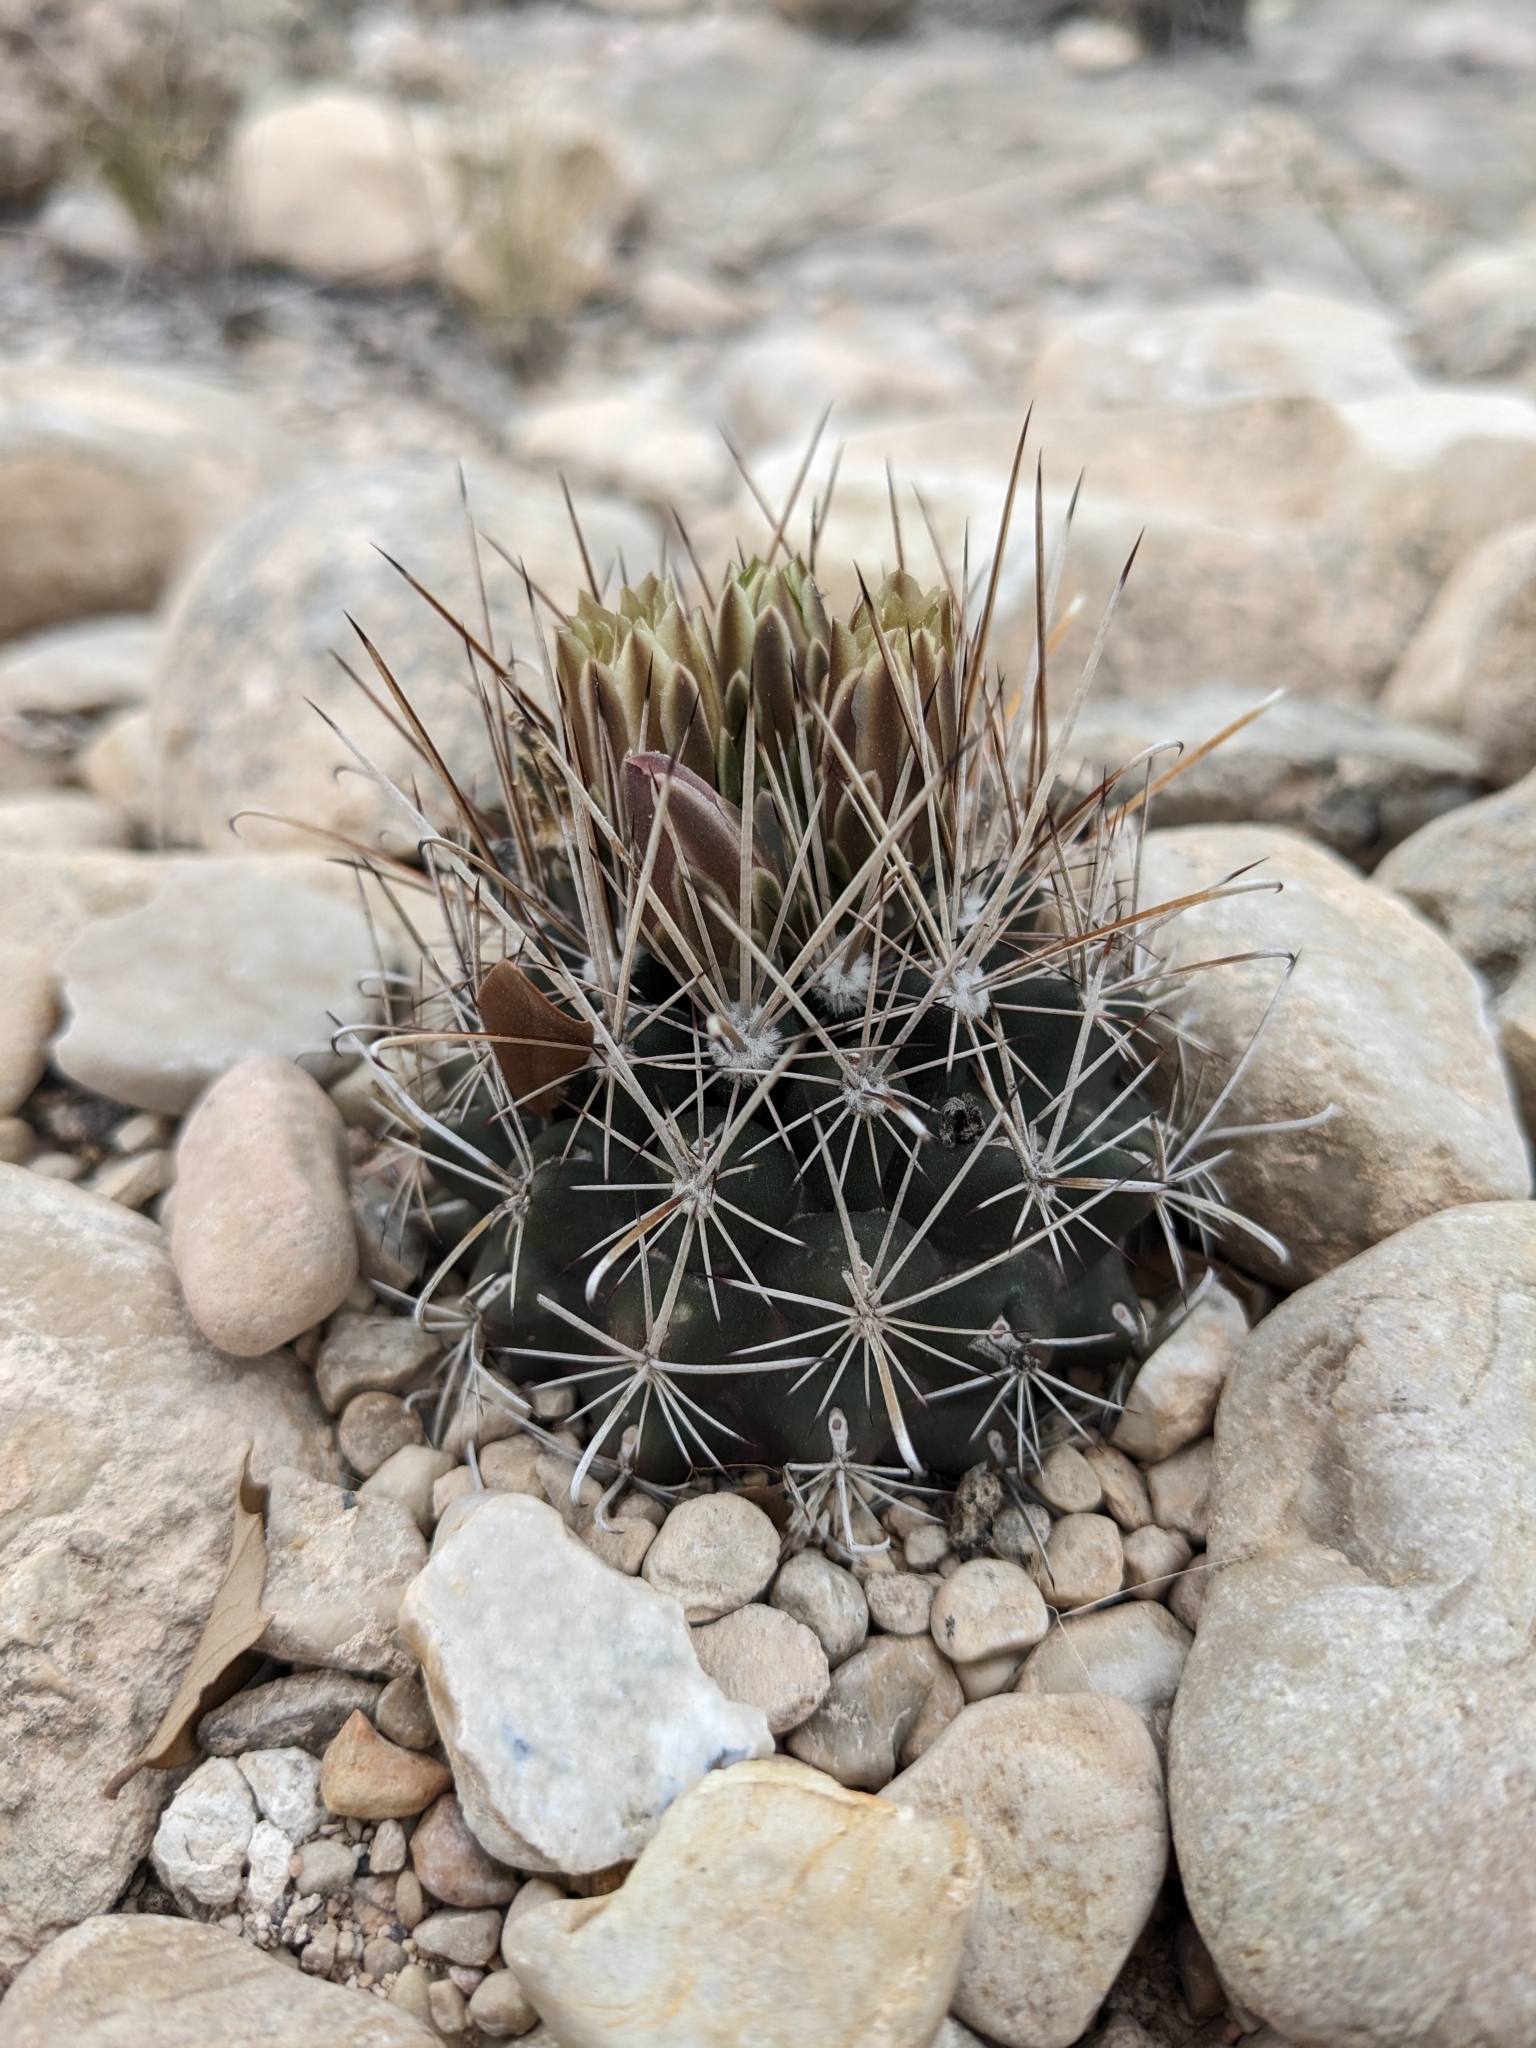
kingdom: Plantae
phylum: Tracheophyta
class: Magnoliopsida
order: Caryophyllales
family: Cactaceae
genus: Sclerocactus
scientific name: Sclerocactus brevihamatus
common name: Engelmann's fishhook cactus
